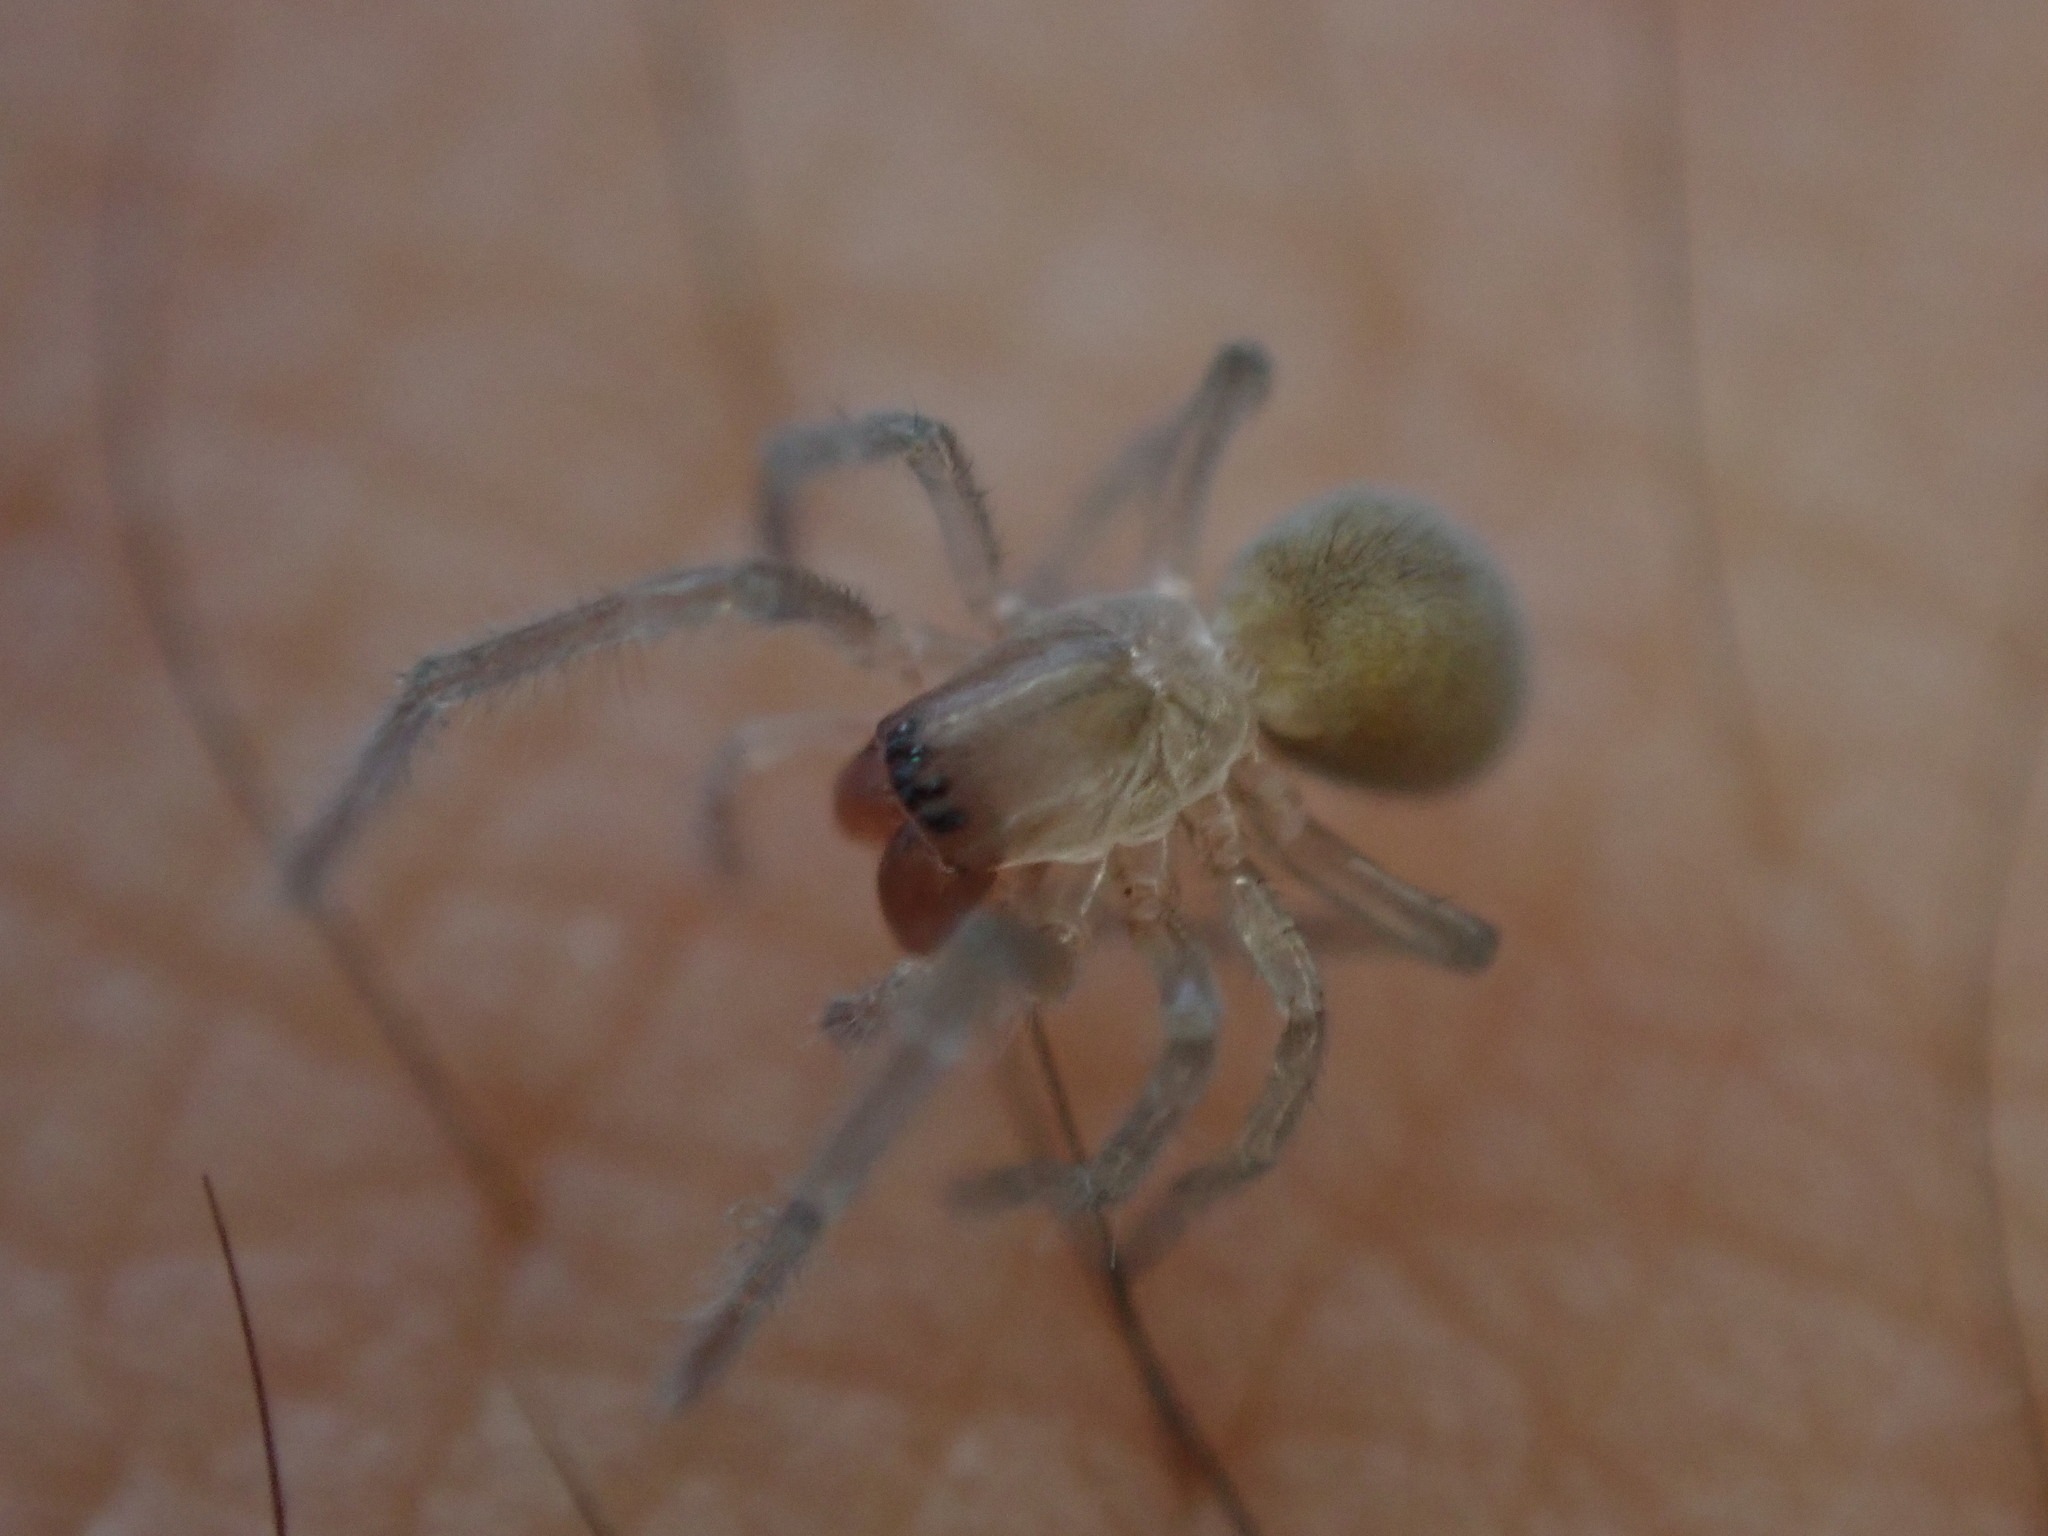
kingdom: Animalia
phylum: Arthropoda
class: Arachnida
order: Araneae
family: Desidae
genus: Desis
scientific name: Desis marina
